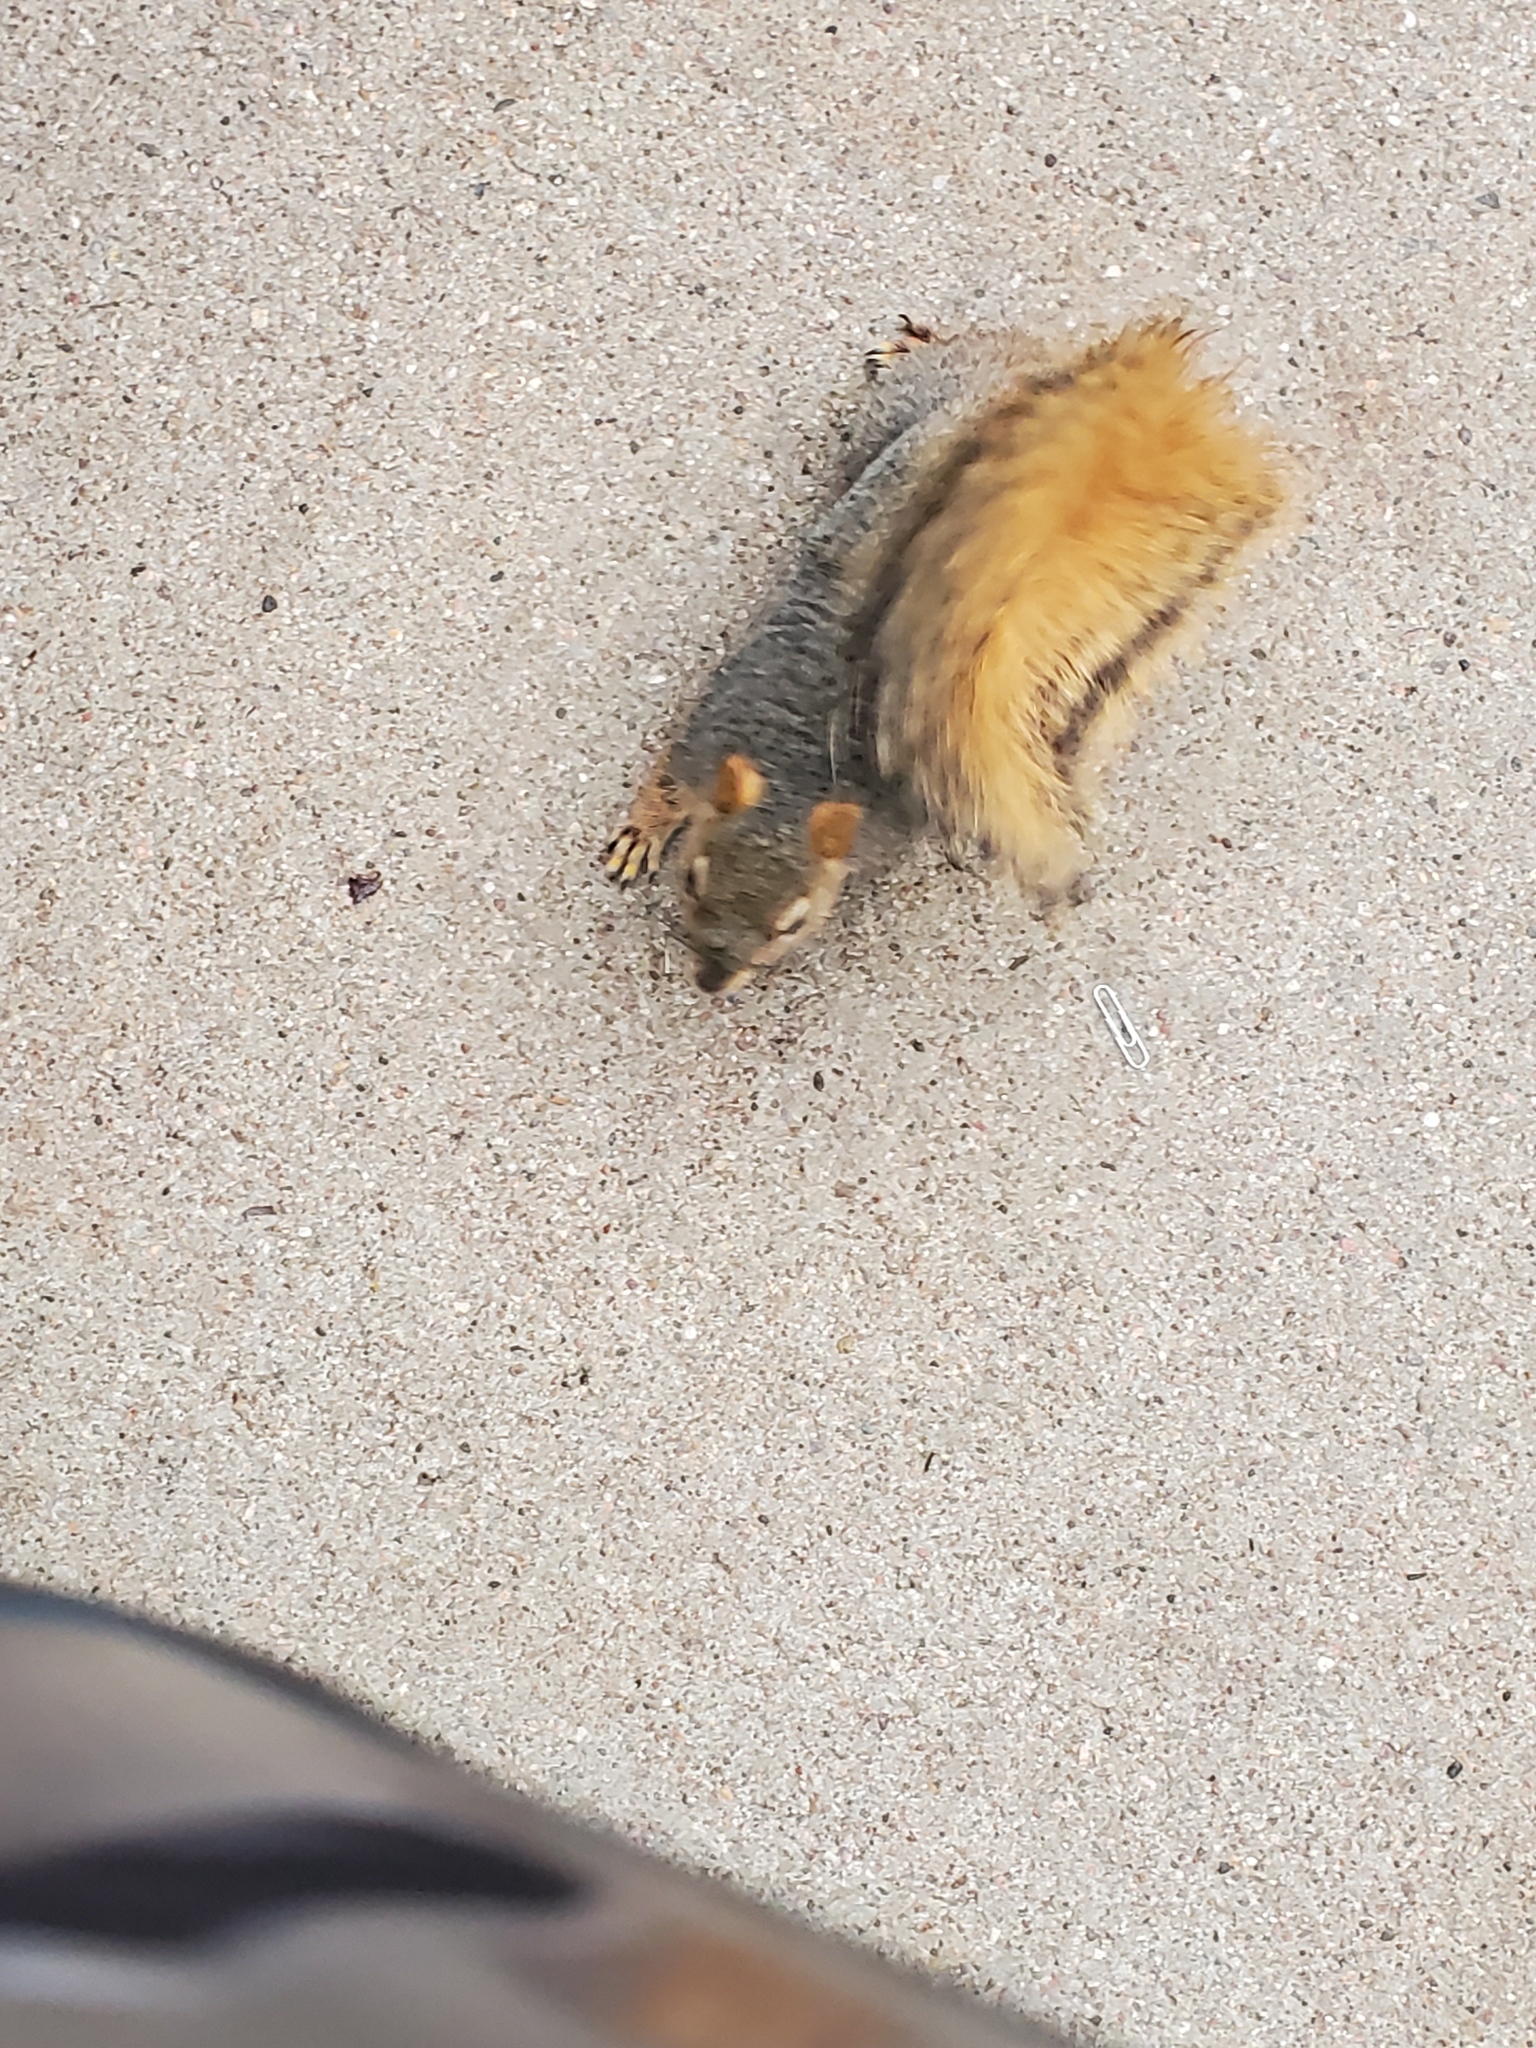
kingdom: Animalia
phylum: Chordata
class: Mammalia
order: Rodentia
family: Sciuridae
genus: Sciurus
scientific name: Sciurus niger
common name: Fox squirrel
